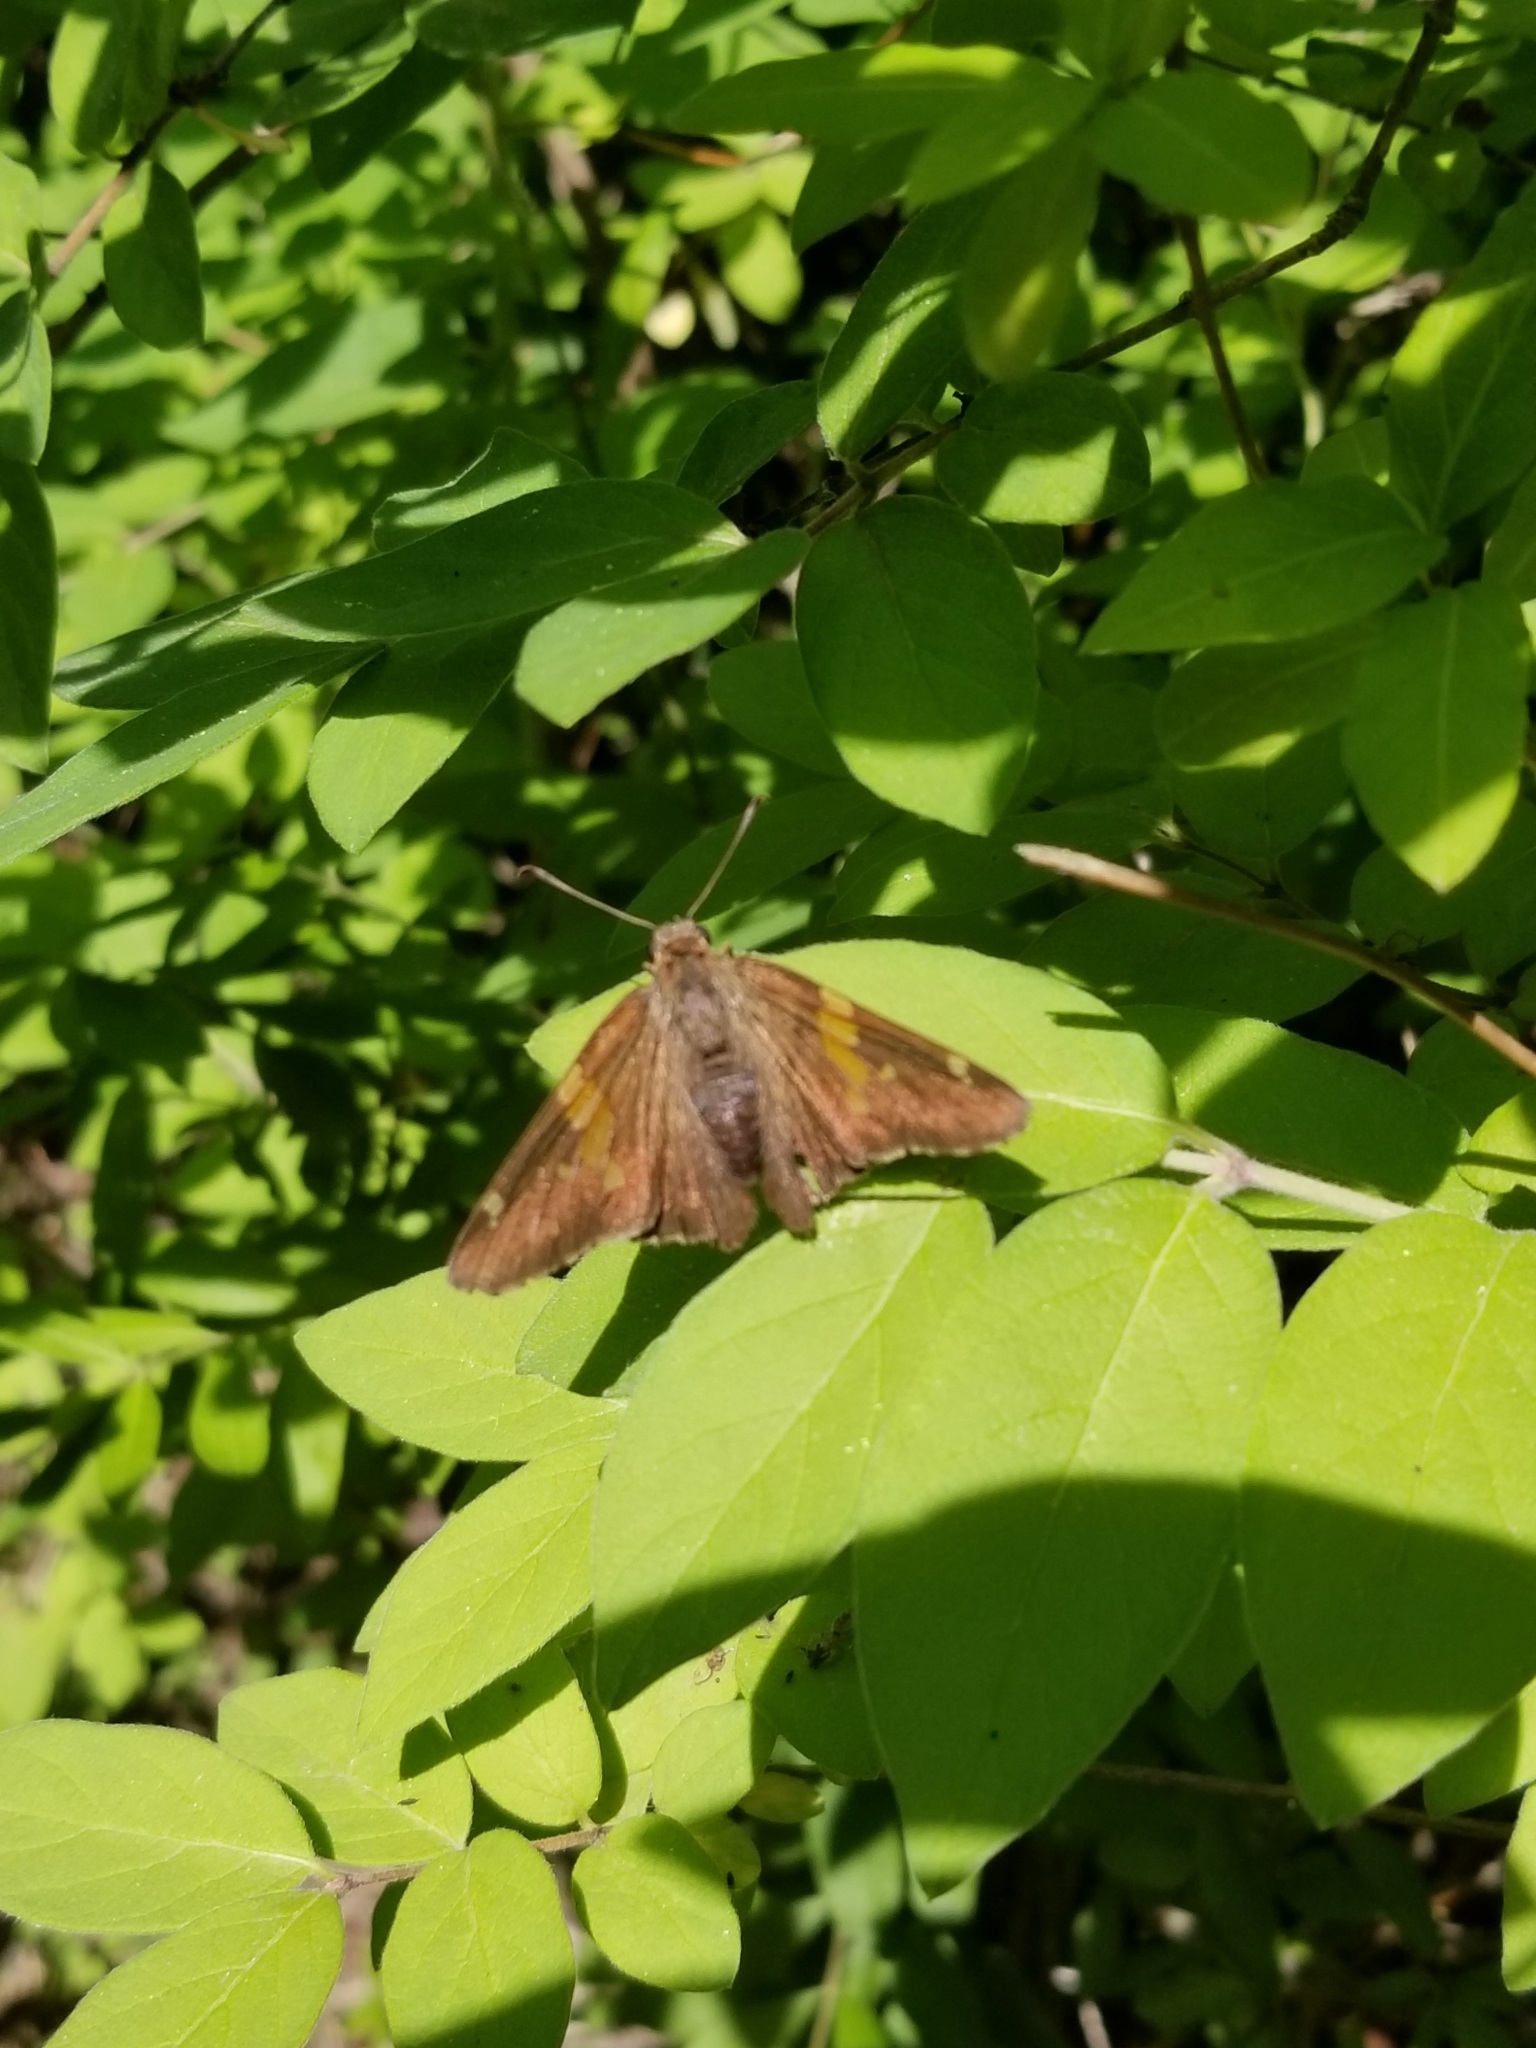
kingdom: Animalia
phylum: Arthropoda
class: Insecta
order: Lepidoptera
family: Hesperiidae
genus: Epargyreus
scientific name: Epargyreus clarus
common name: Silver-spotted skipper
